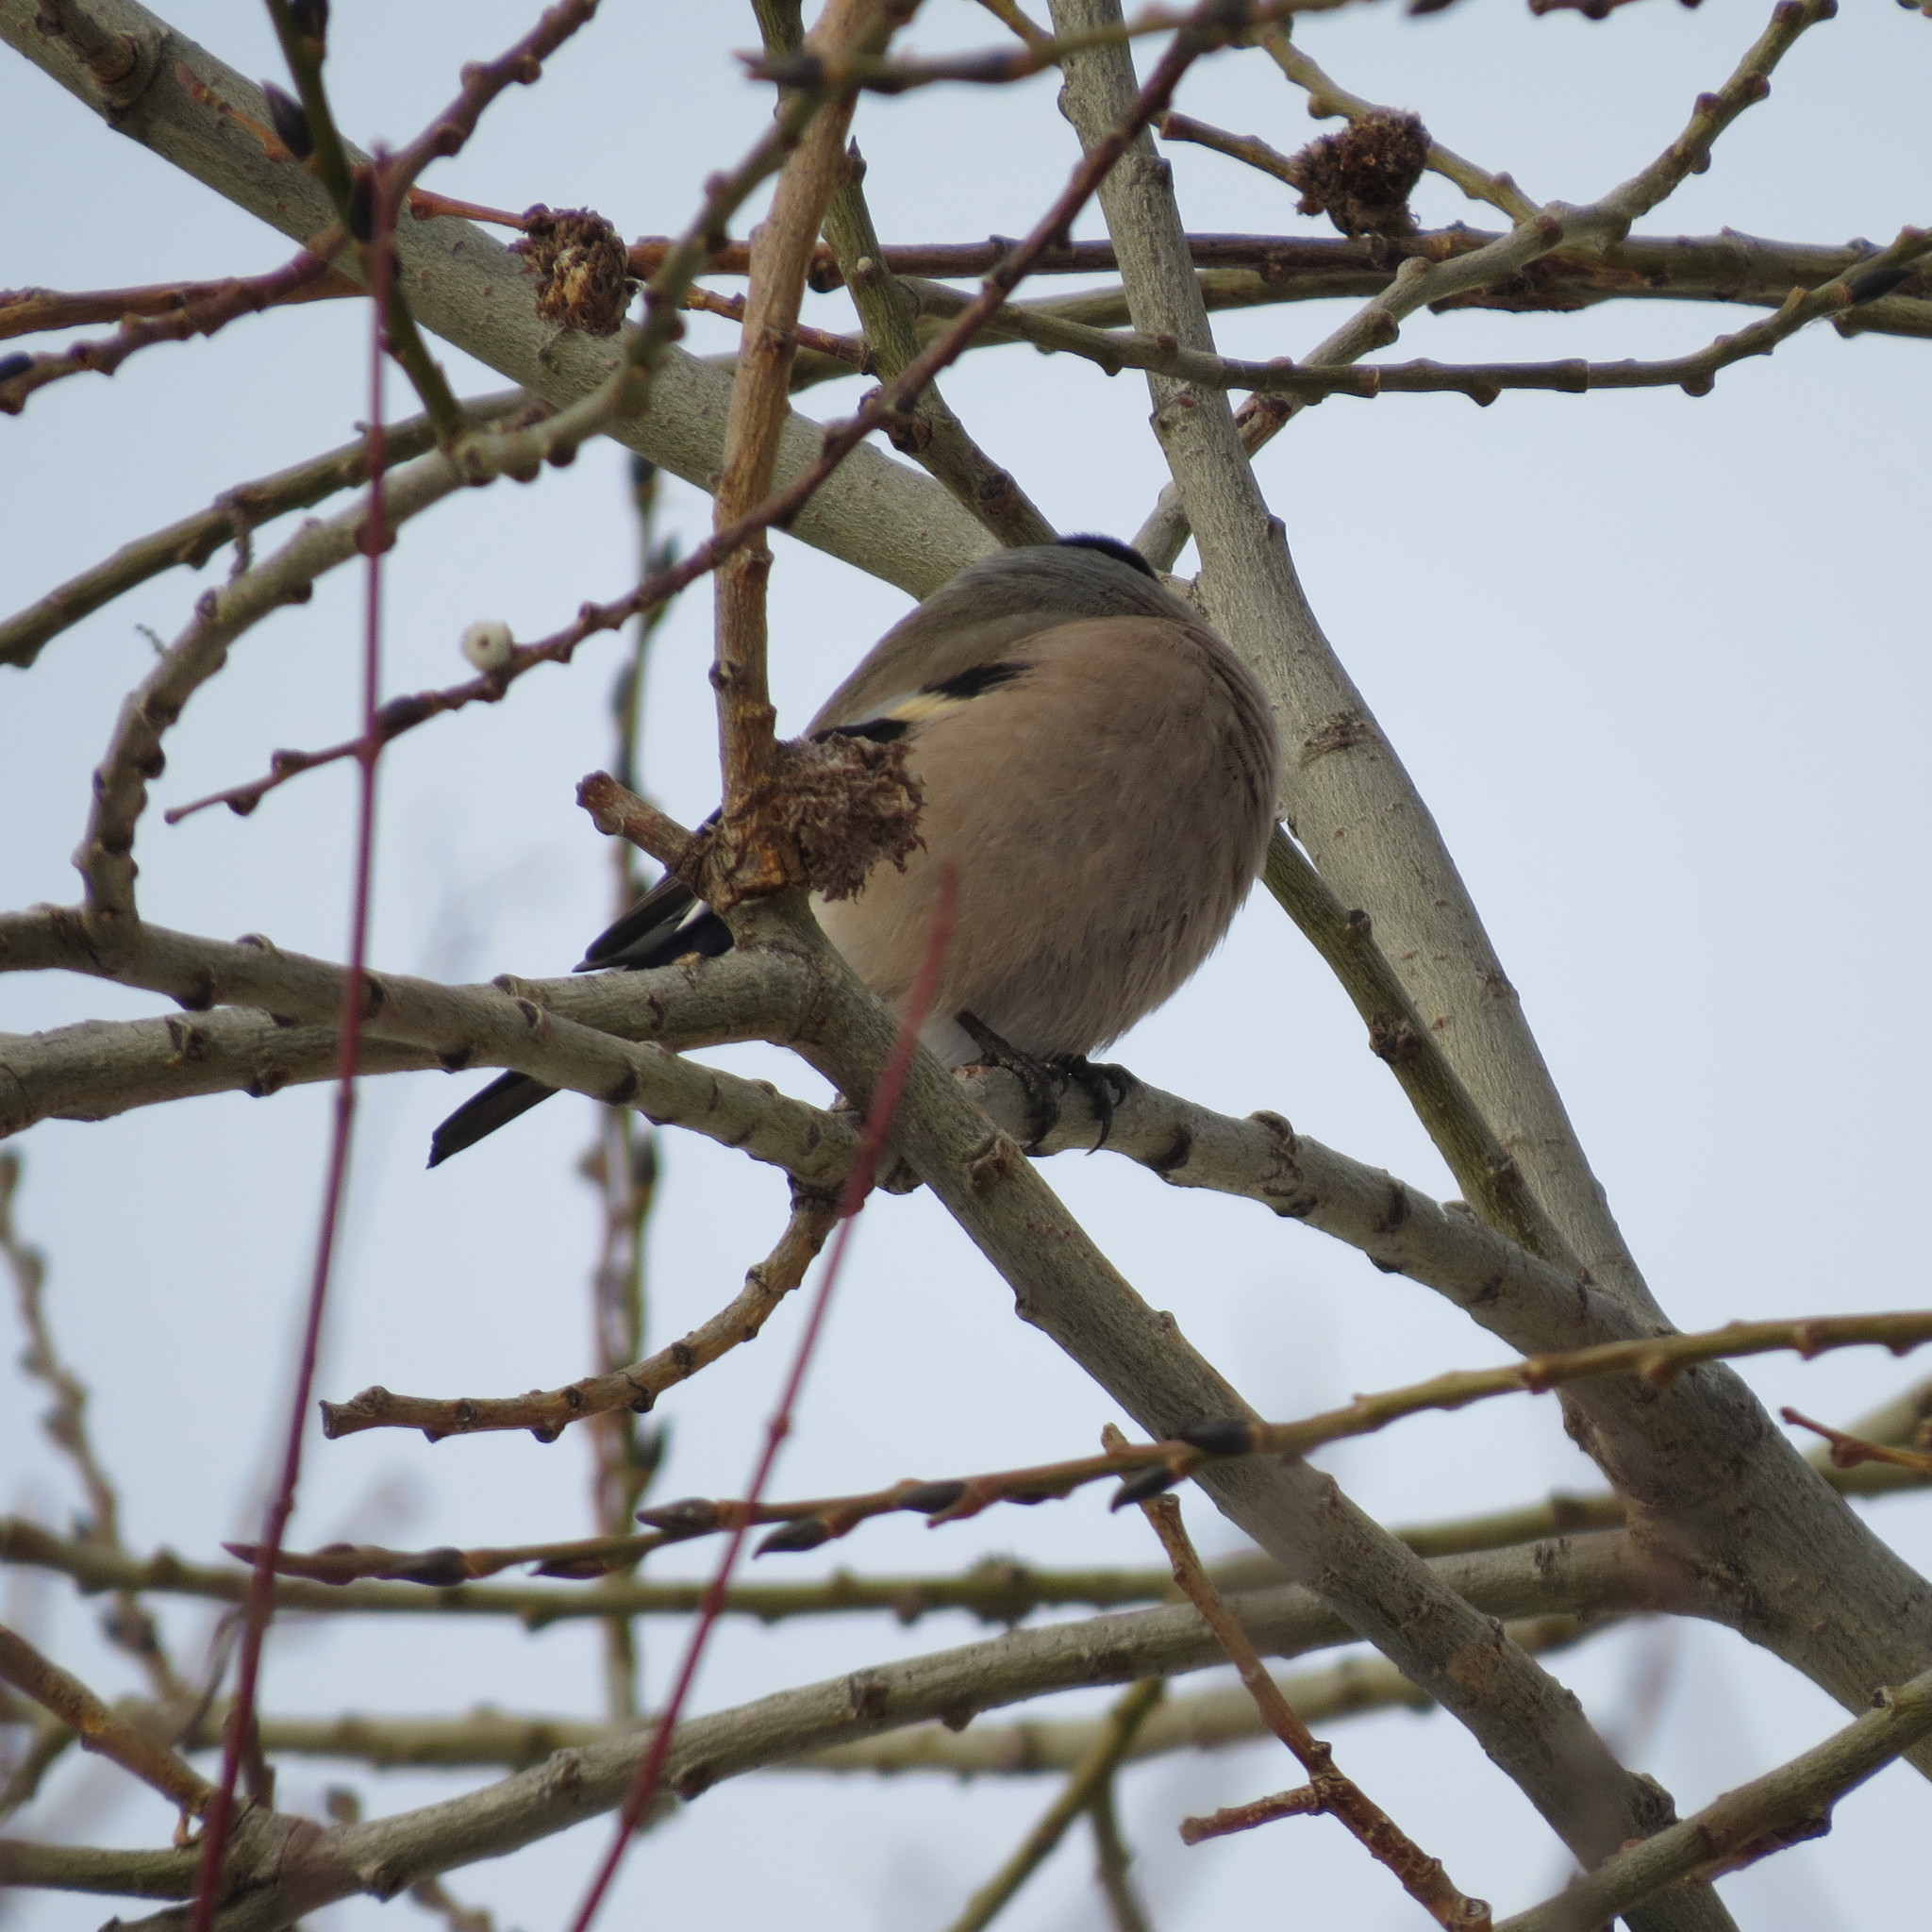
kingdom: Animalia
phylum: Chordata
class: Aves
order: Passeriformes
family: Fringillidae
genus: Pyrrhula
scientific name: Pyrrhula pyrrhula
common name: Eurasian bullfinch
